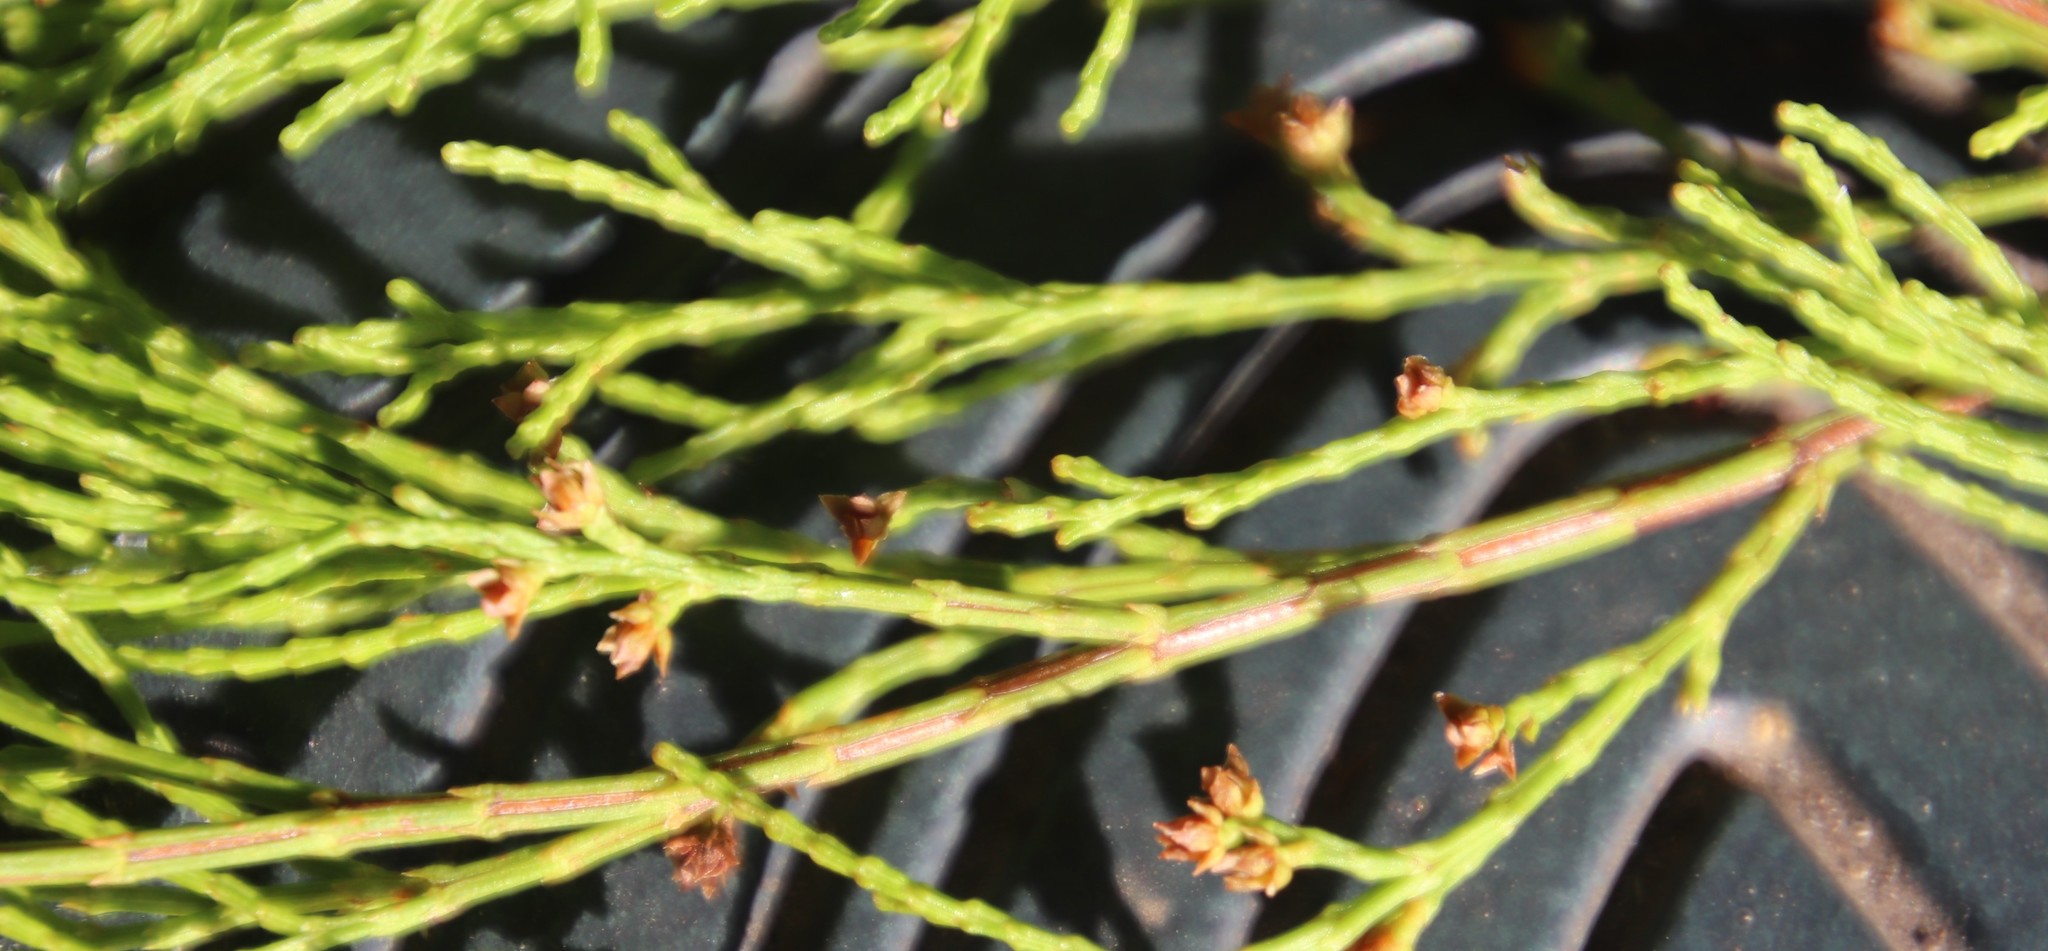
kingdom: Plantae
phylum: Tracheophyta
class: Pinopsida
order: Pinales
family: Cupressaceae
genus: Callitris
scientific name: Callitris rhomboidea
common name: Illawara mountain pine
